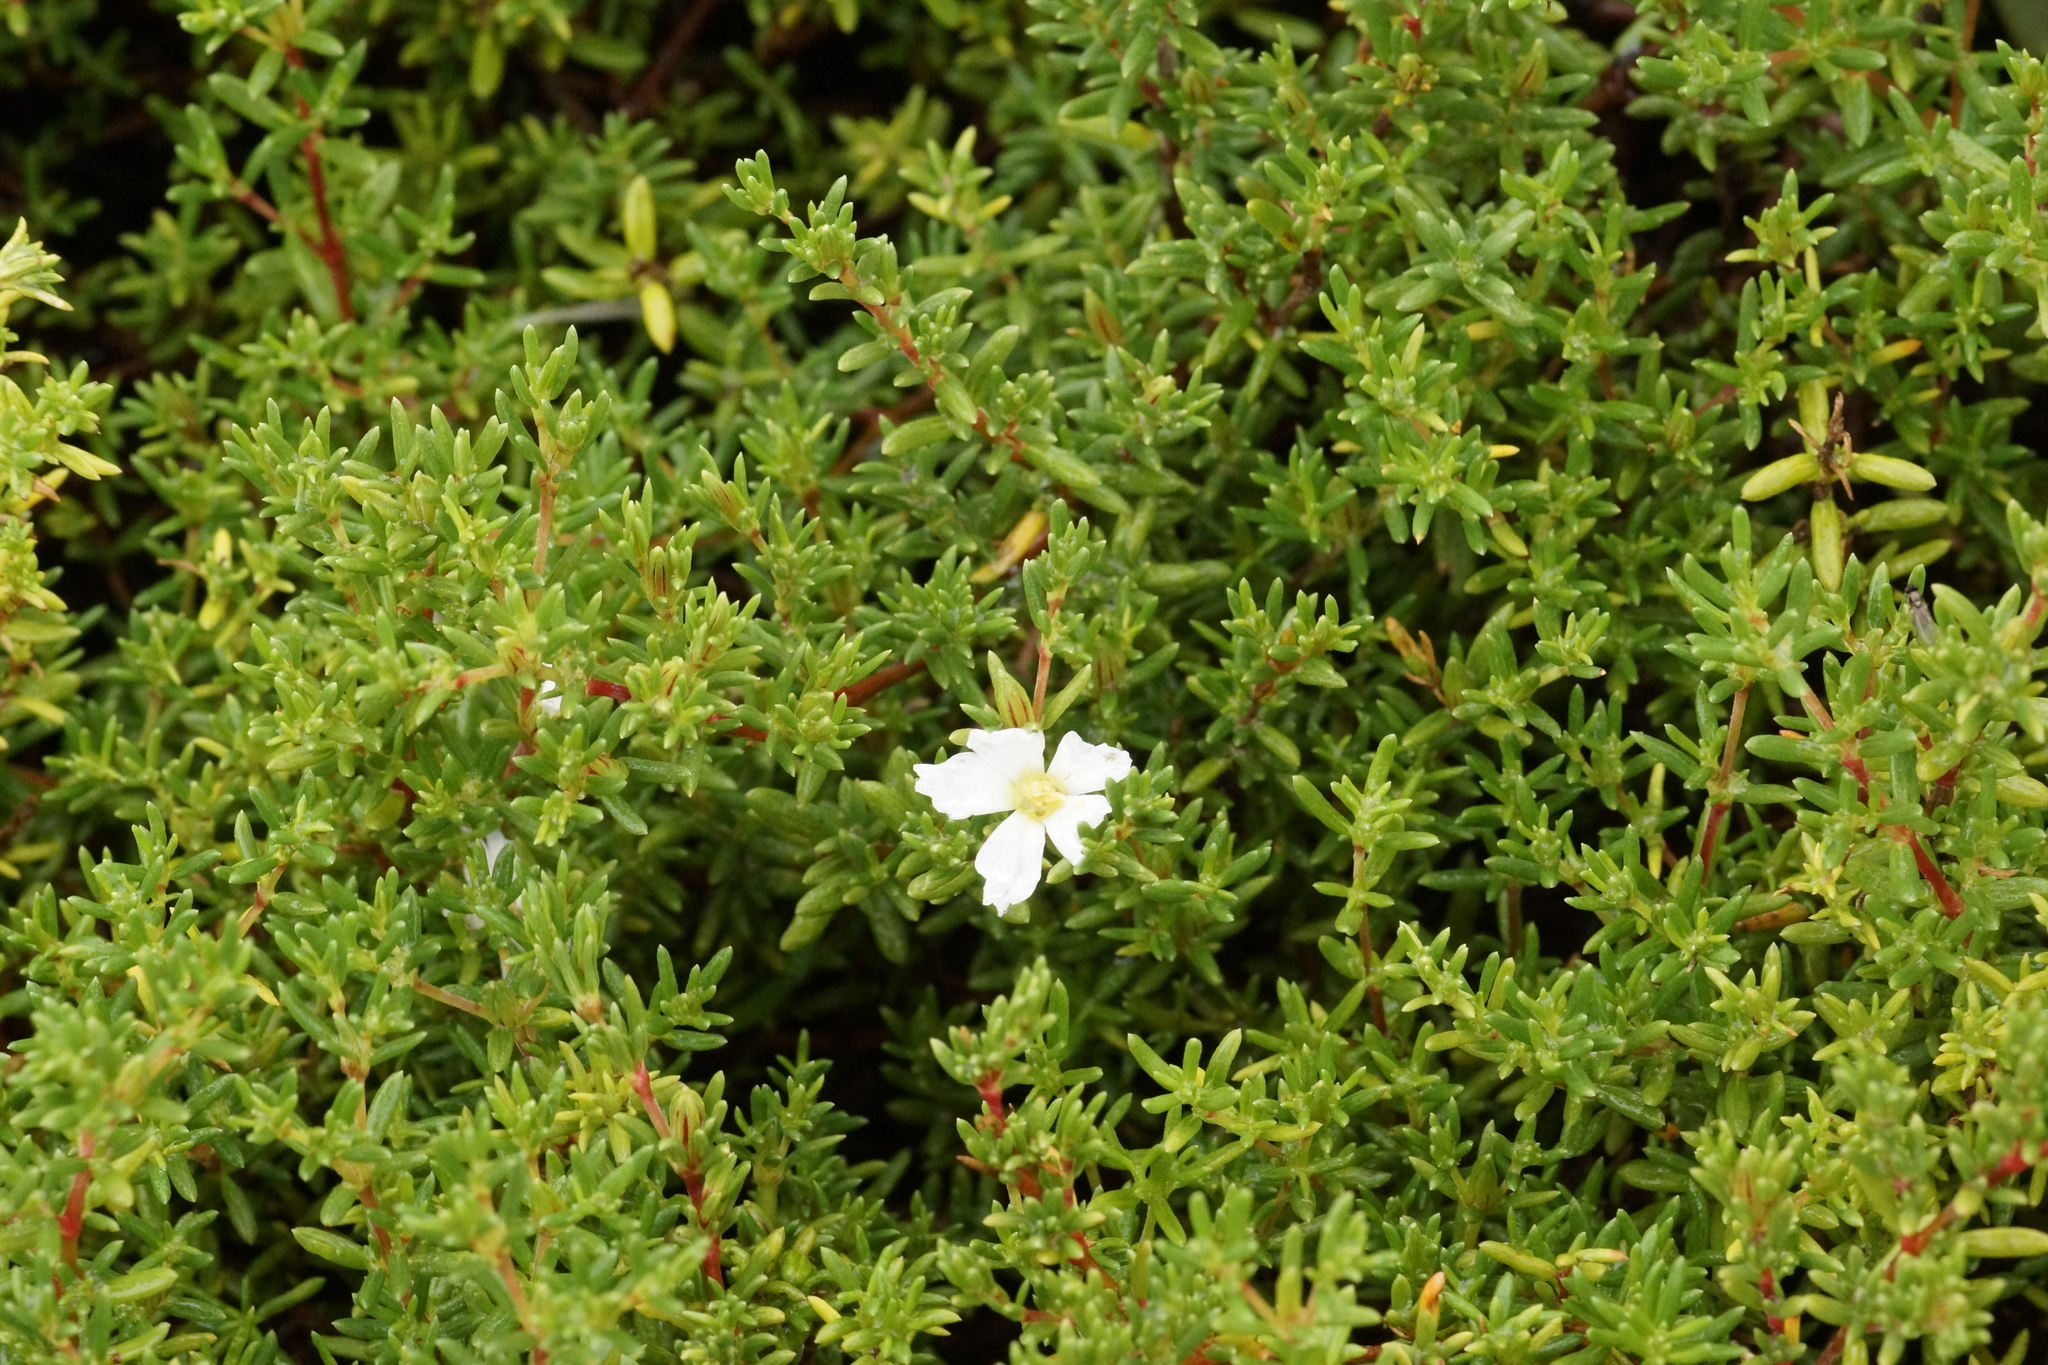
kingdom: Plantae
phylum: Tracheophyta
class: Magnoliopsida
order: Caryophyllales
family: Frankeniaceae
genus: Frankenia
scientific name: Frankenia pauciflora
